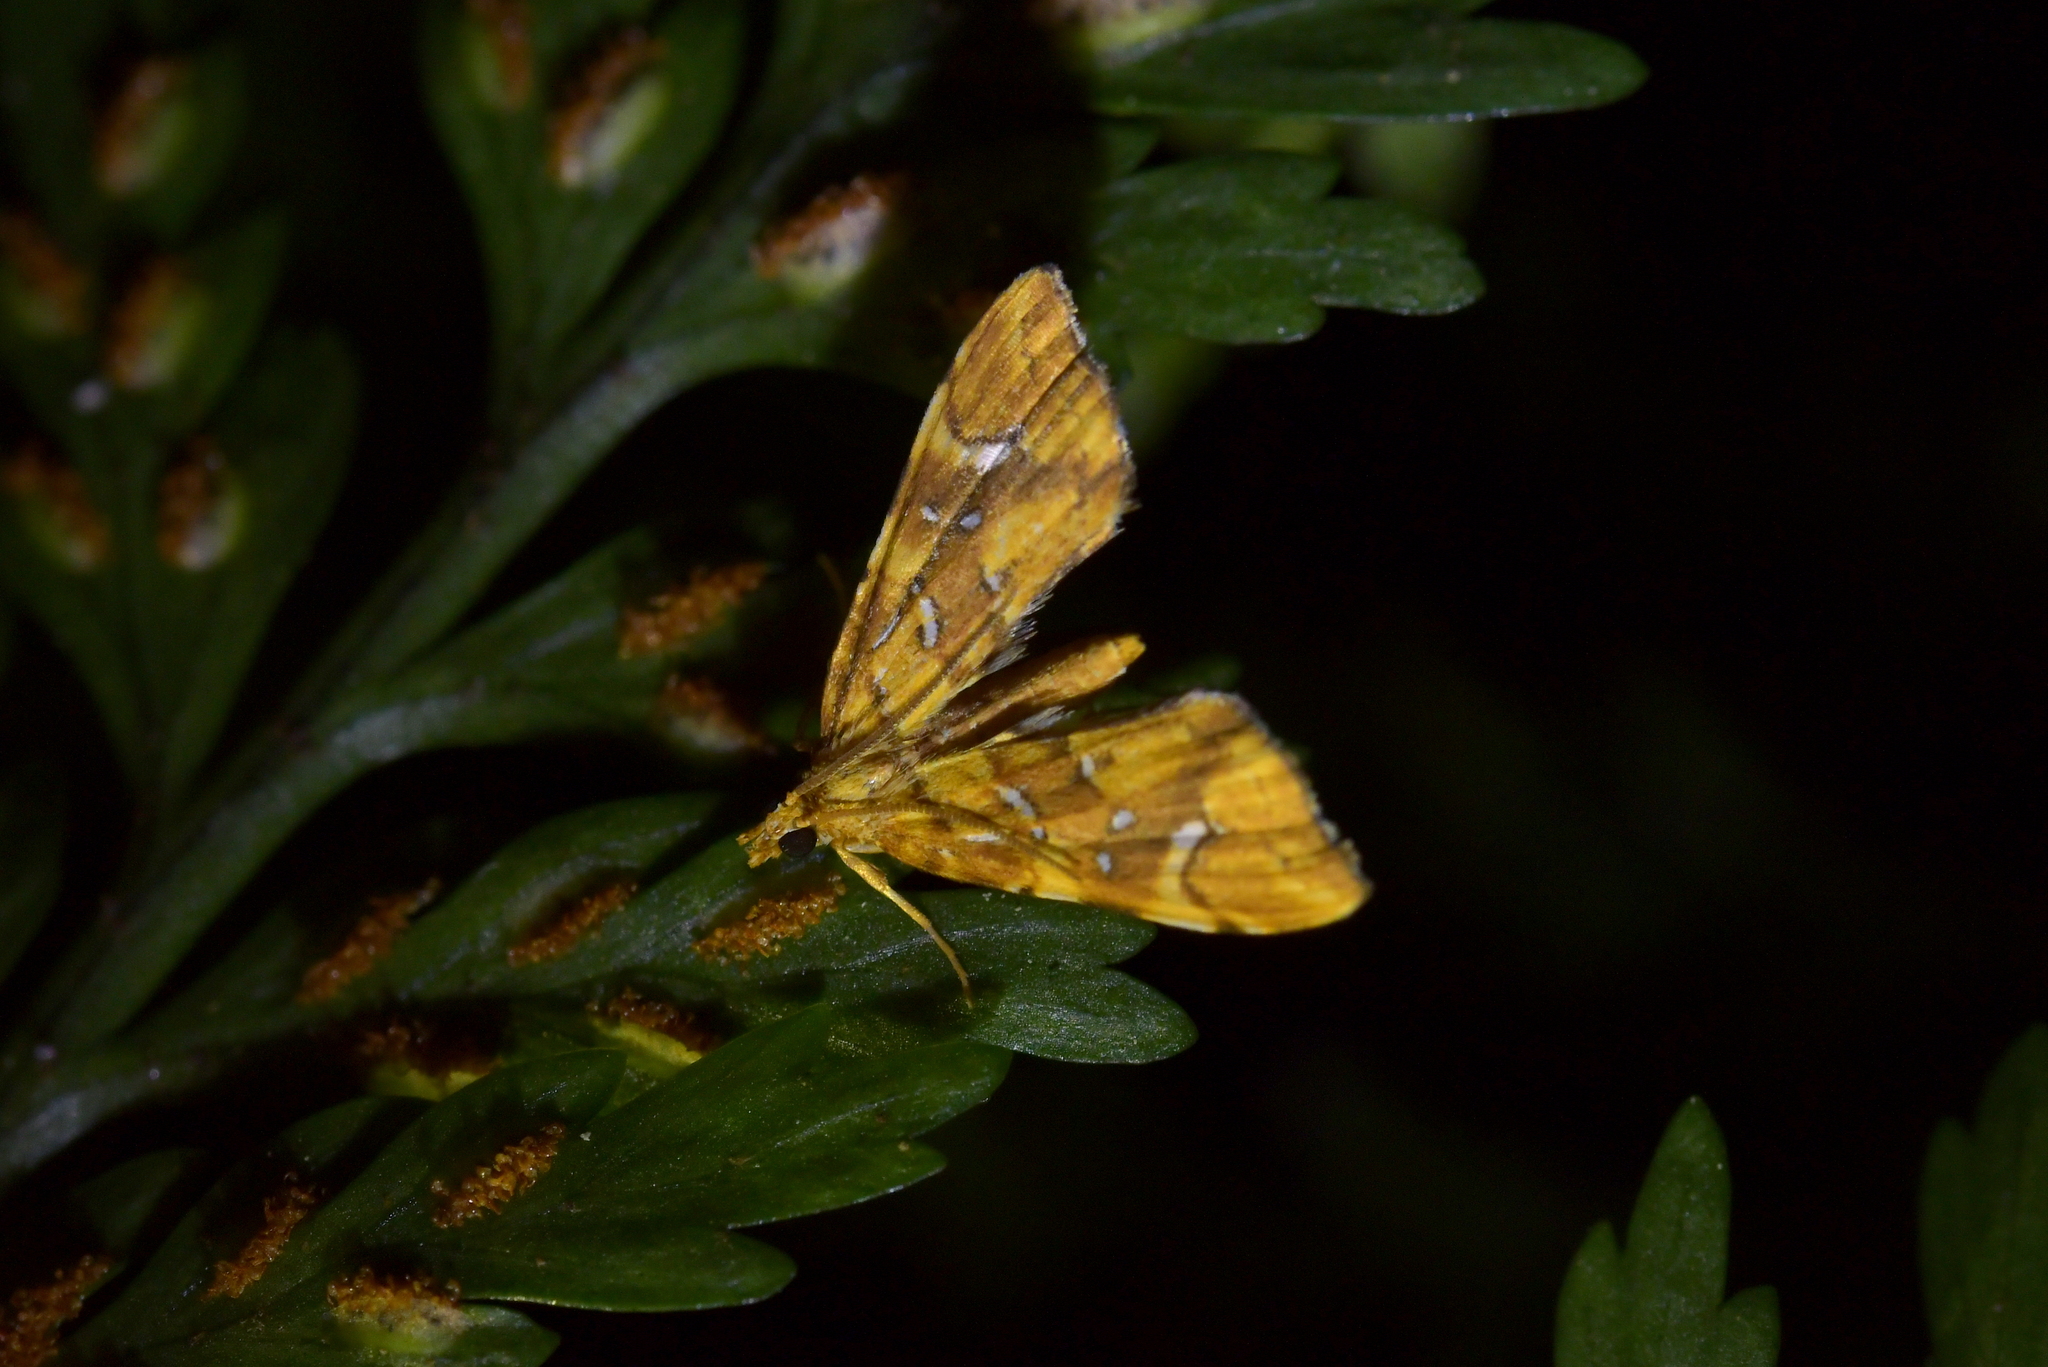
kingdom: Animalia
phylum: Arthropoda
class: Insecta
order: Lepidoptera
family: Pyralidae
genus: Musotima
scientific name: Musotima nitidalis
